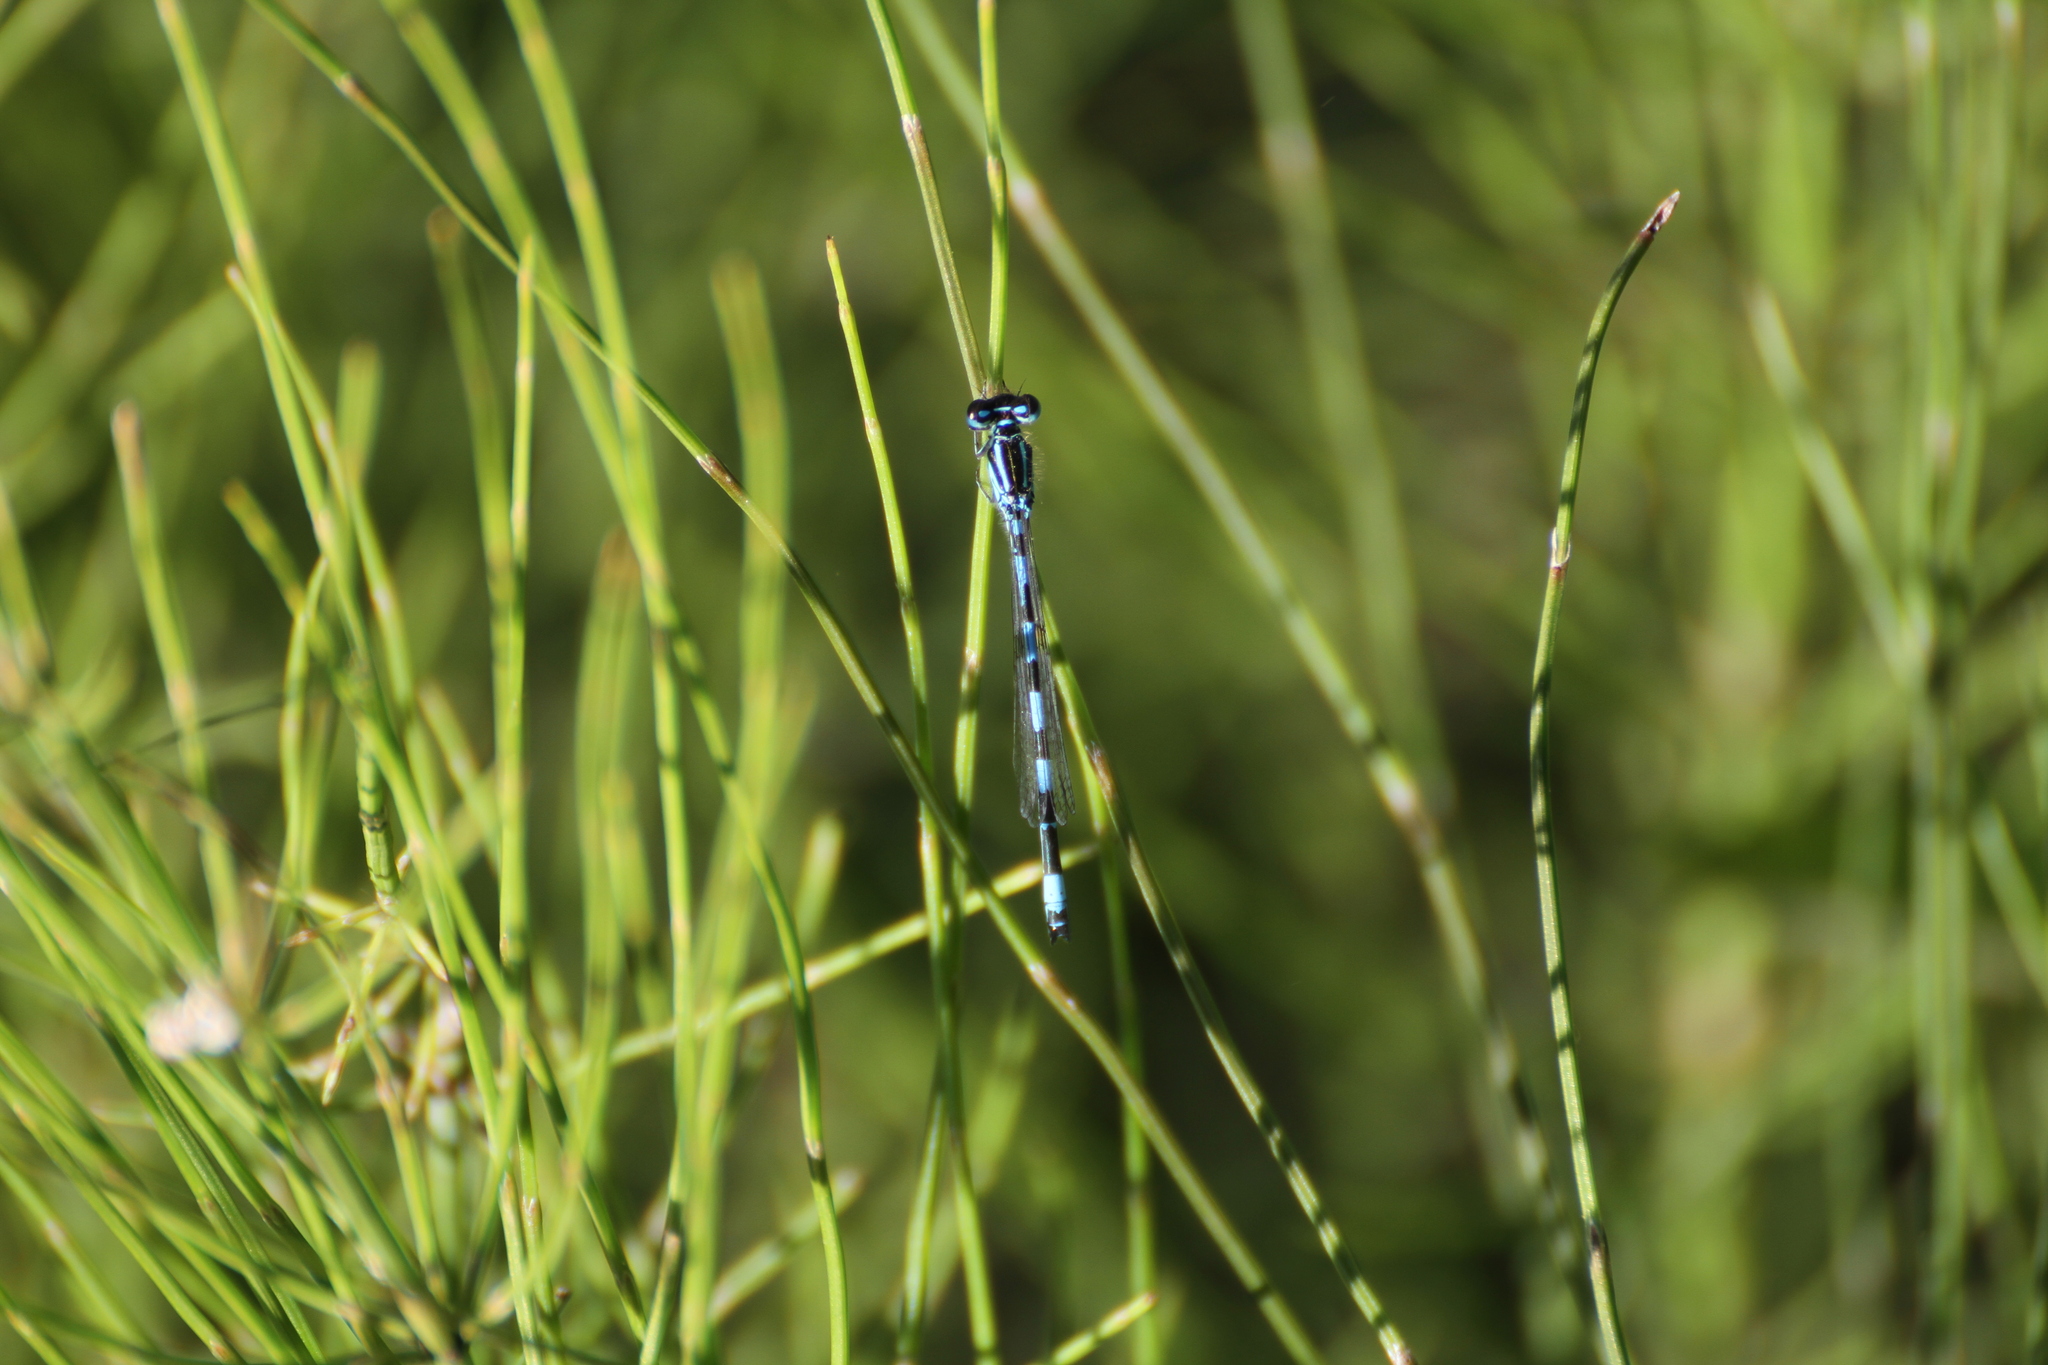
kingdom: Animalia
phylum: Arthropoda
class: Insecta
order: Odonata
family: Coenagrionidae
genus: Coenagrion
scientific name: Coenagrion mercuriale
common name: Southern damselfly
